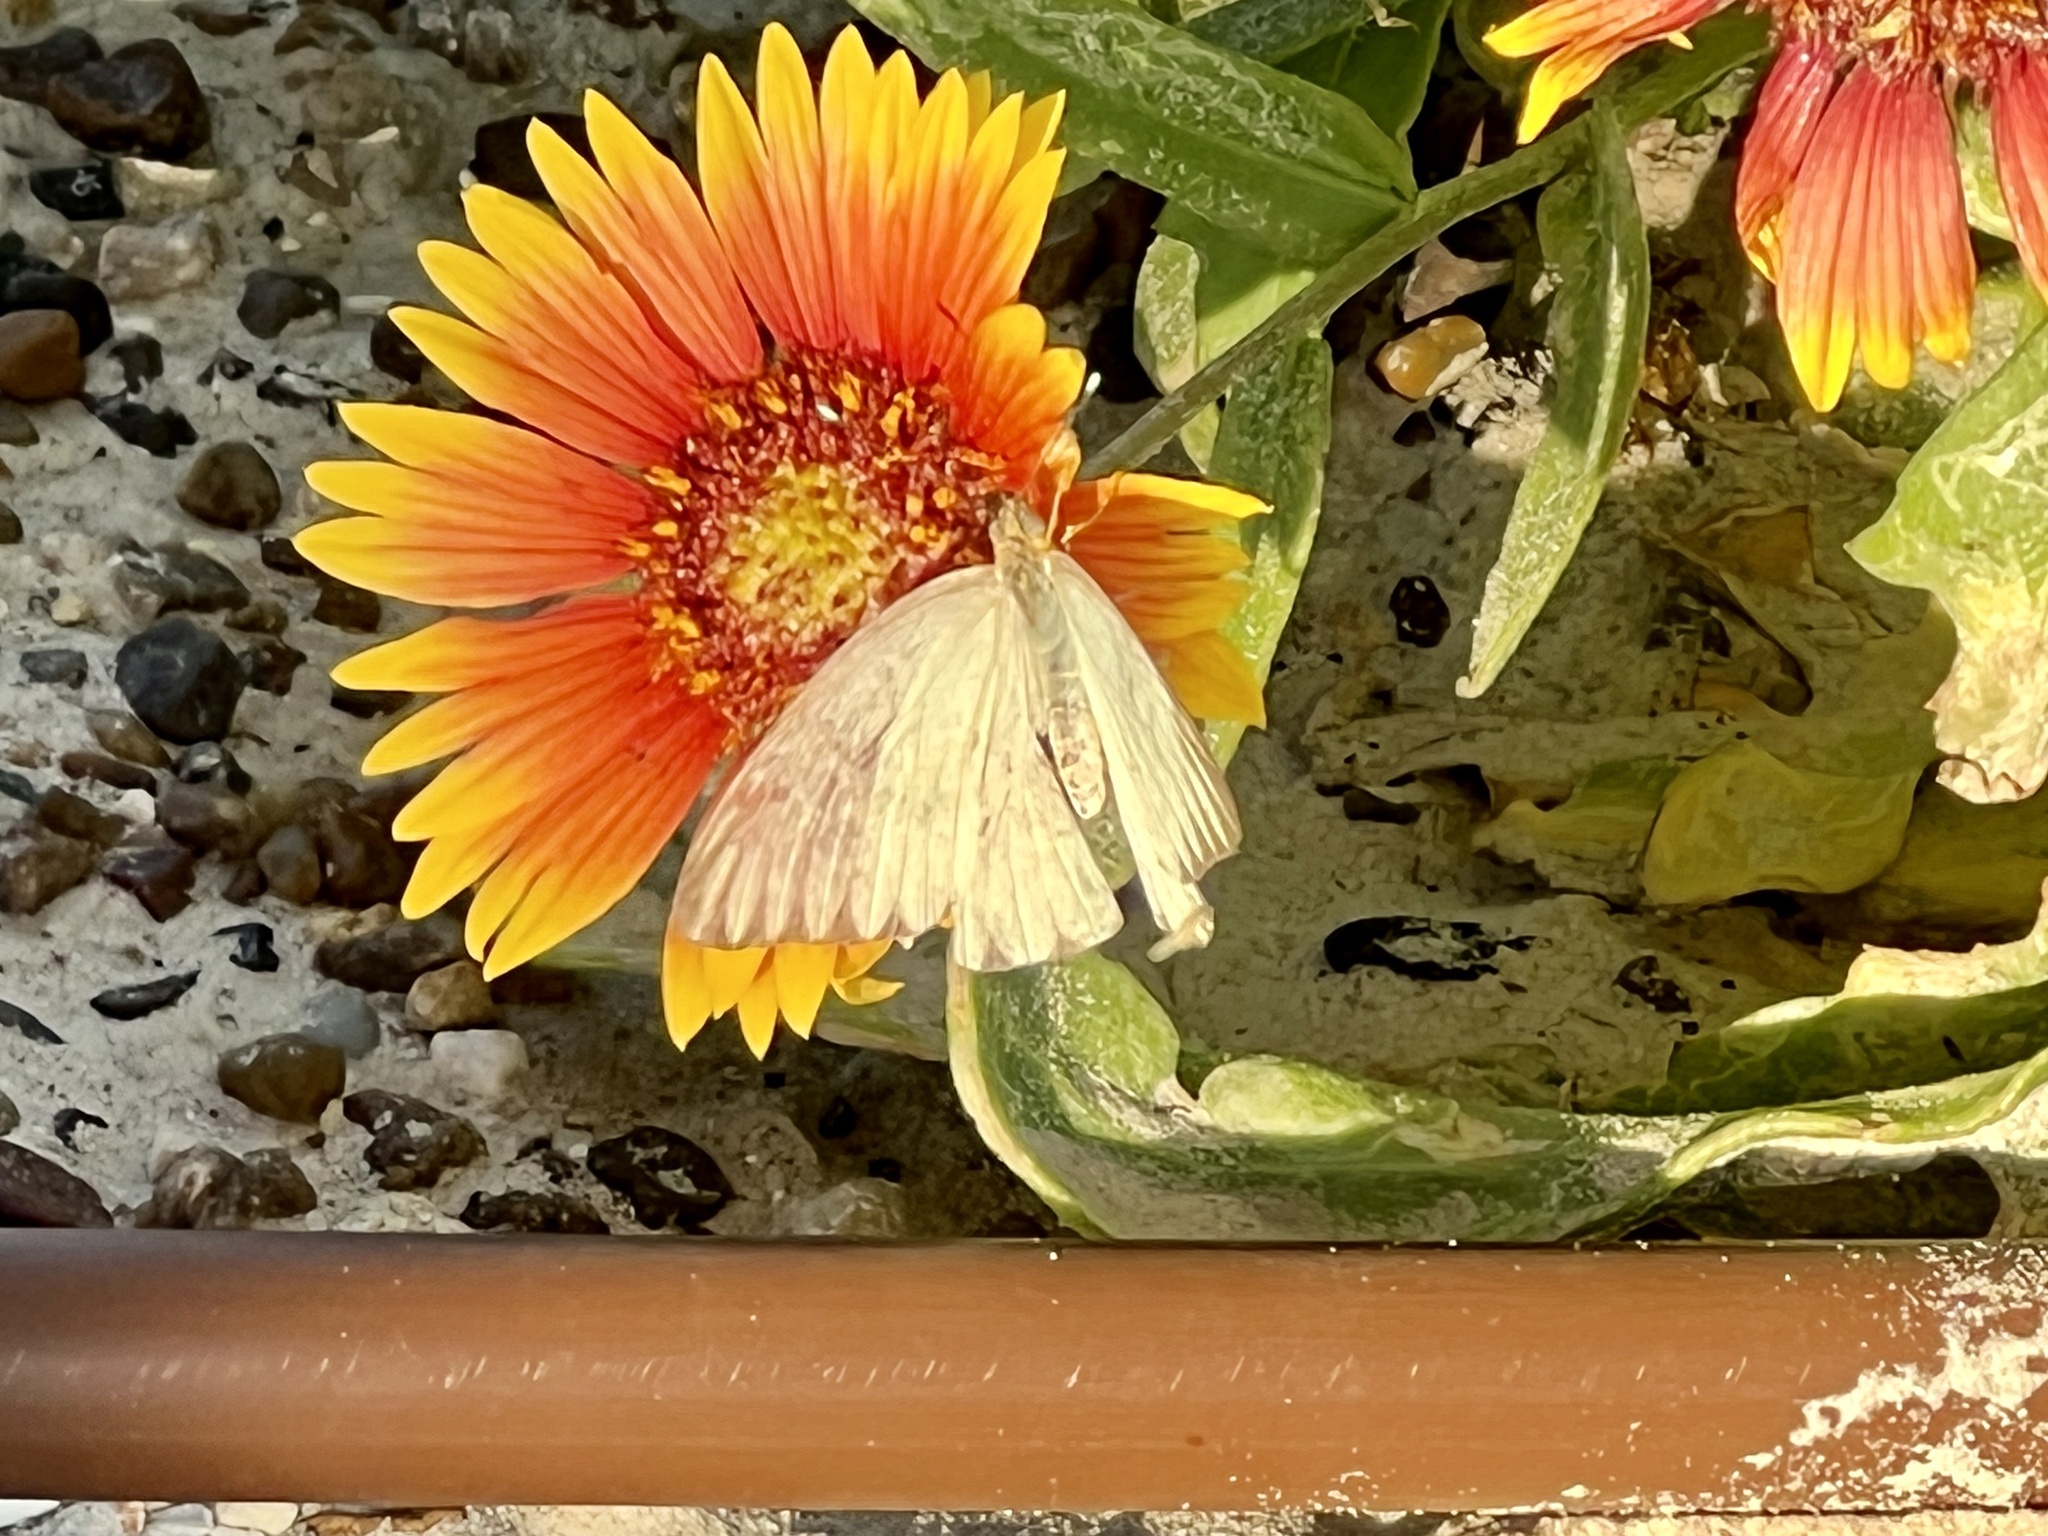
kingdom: Animalia
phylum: Arthropoda
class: Insecta
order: Lepidoptera
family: Pieridae
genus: Ascia
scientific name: Ascia monuste
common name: Great southern white
